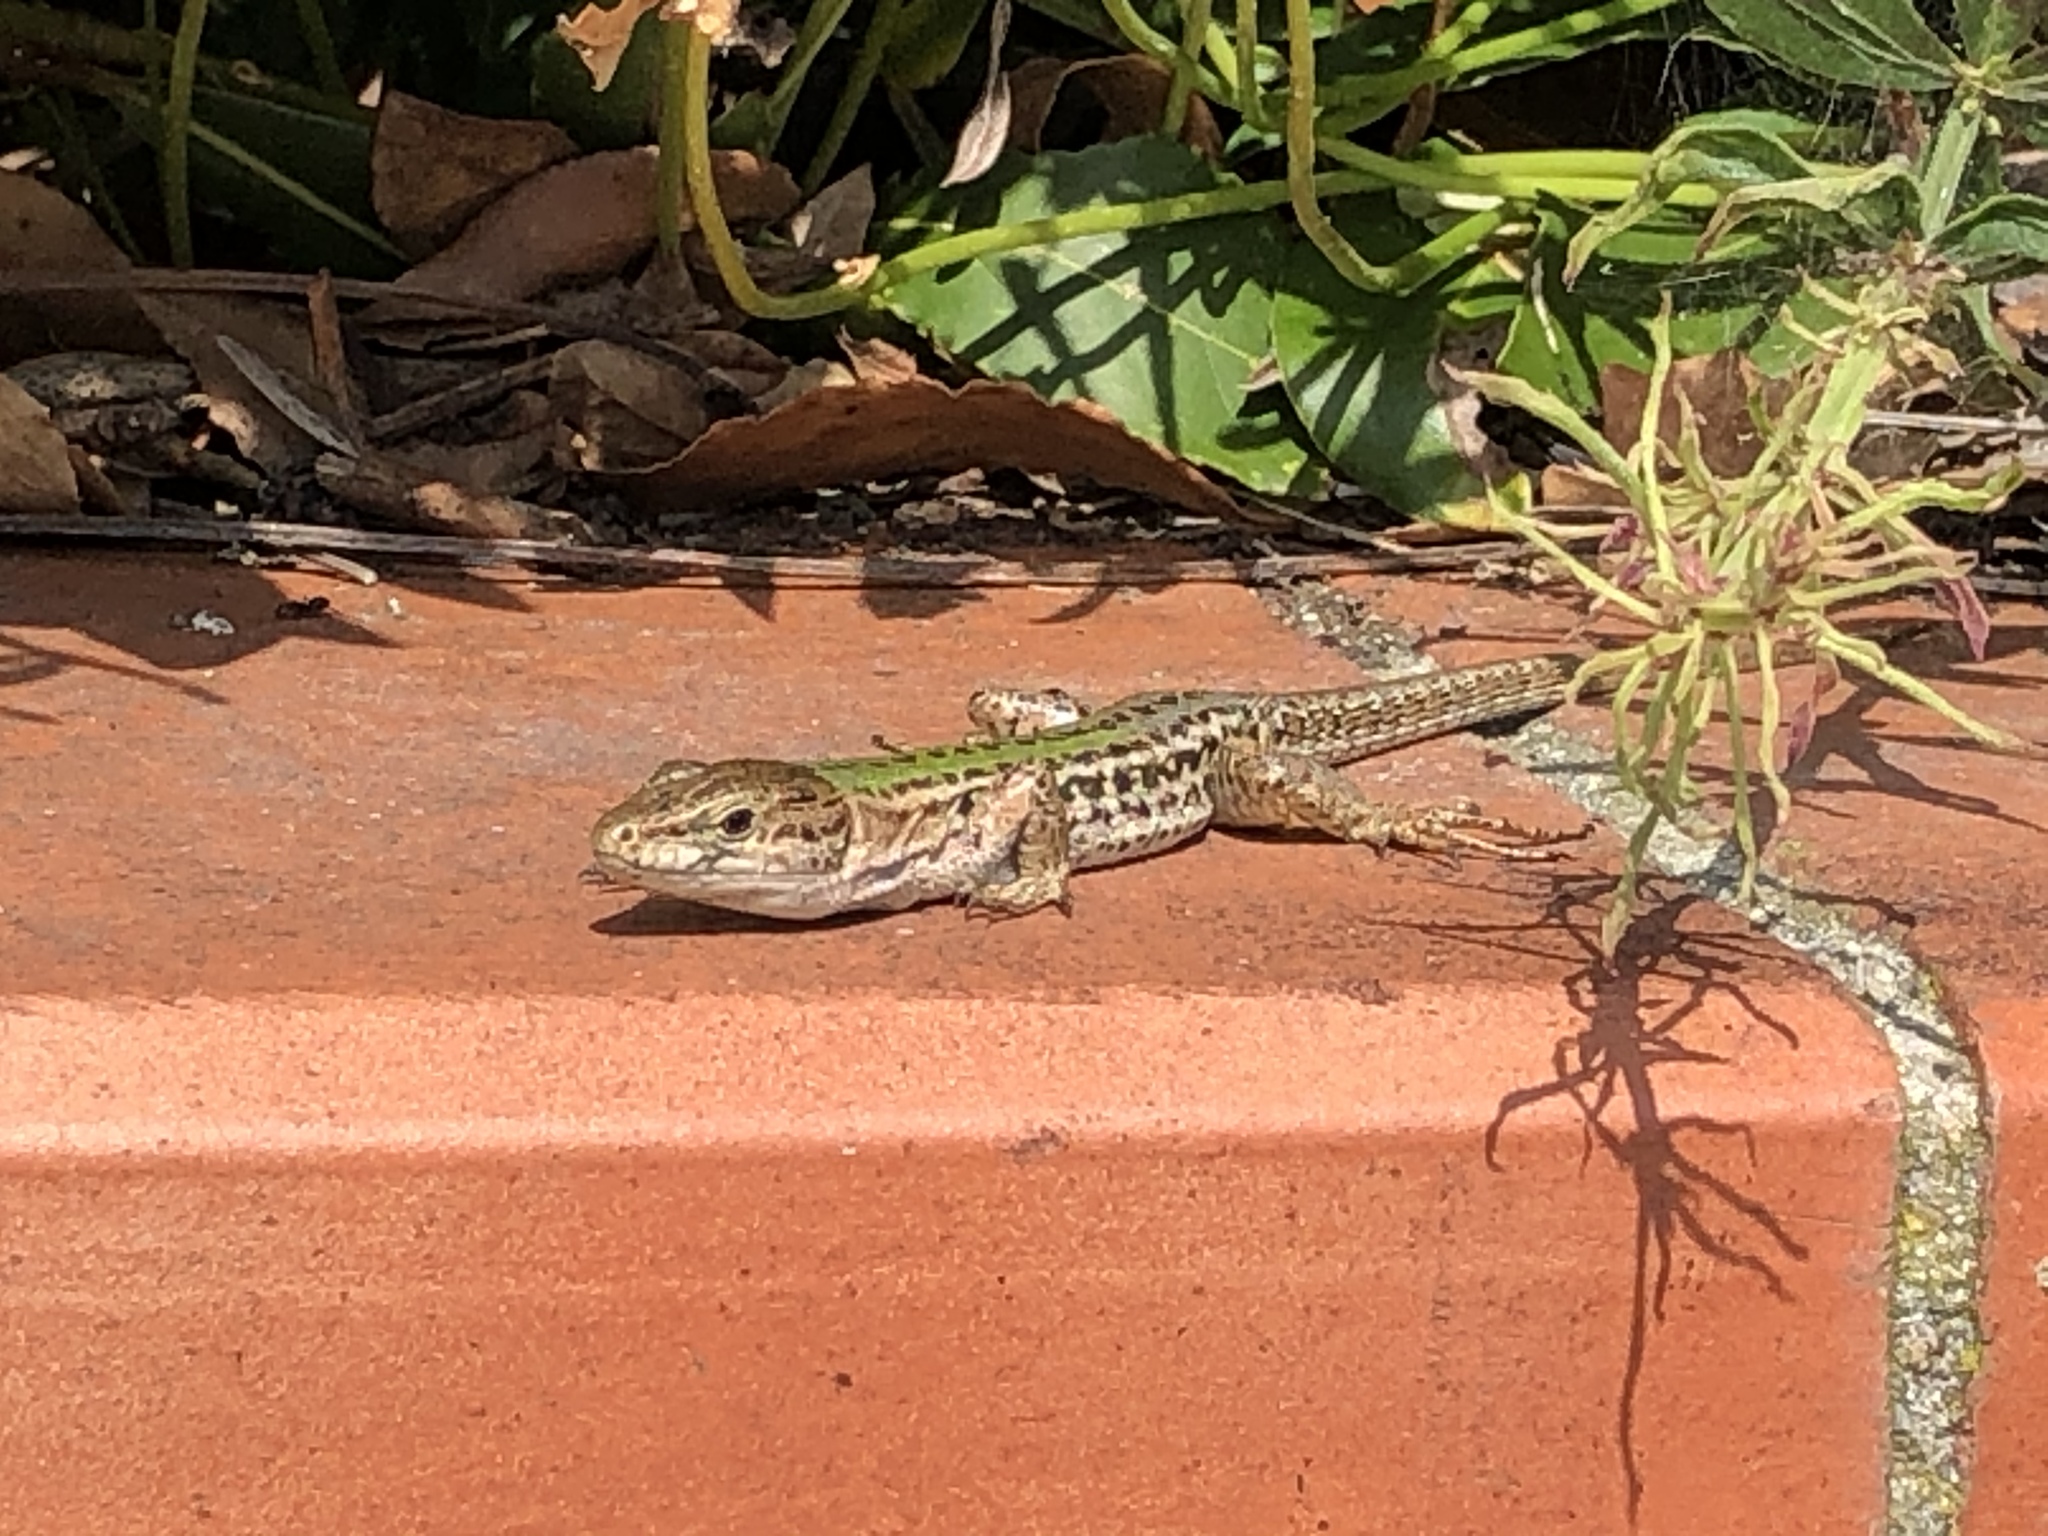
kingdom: Animalia
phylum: Chordata
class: Squamata
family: Lacertidae
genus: Podarcis
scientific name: Podarcis siculus
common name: Italian wall lizard
